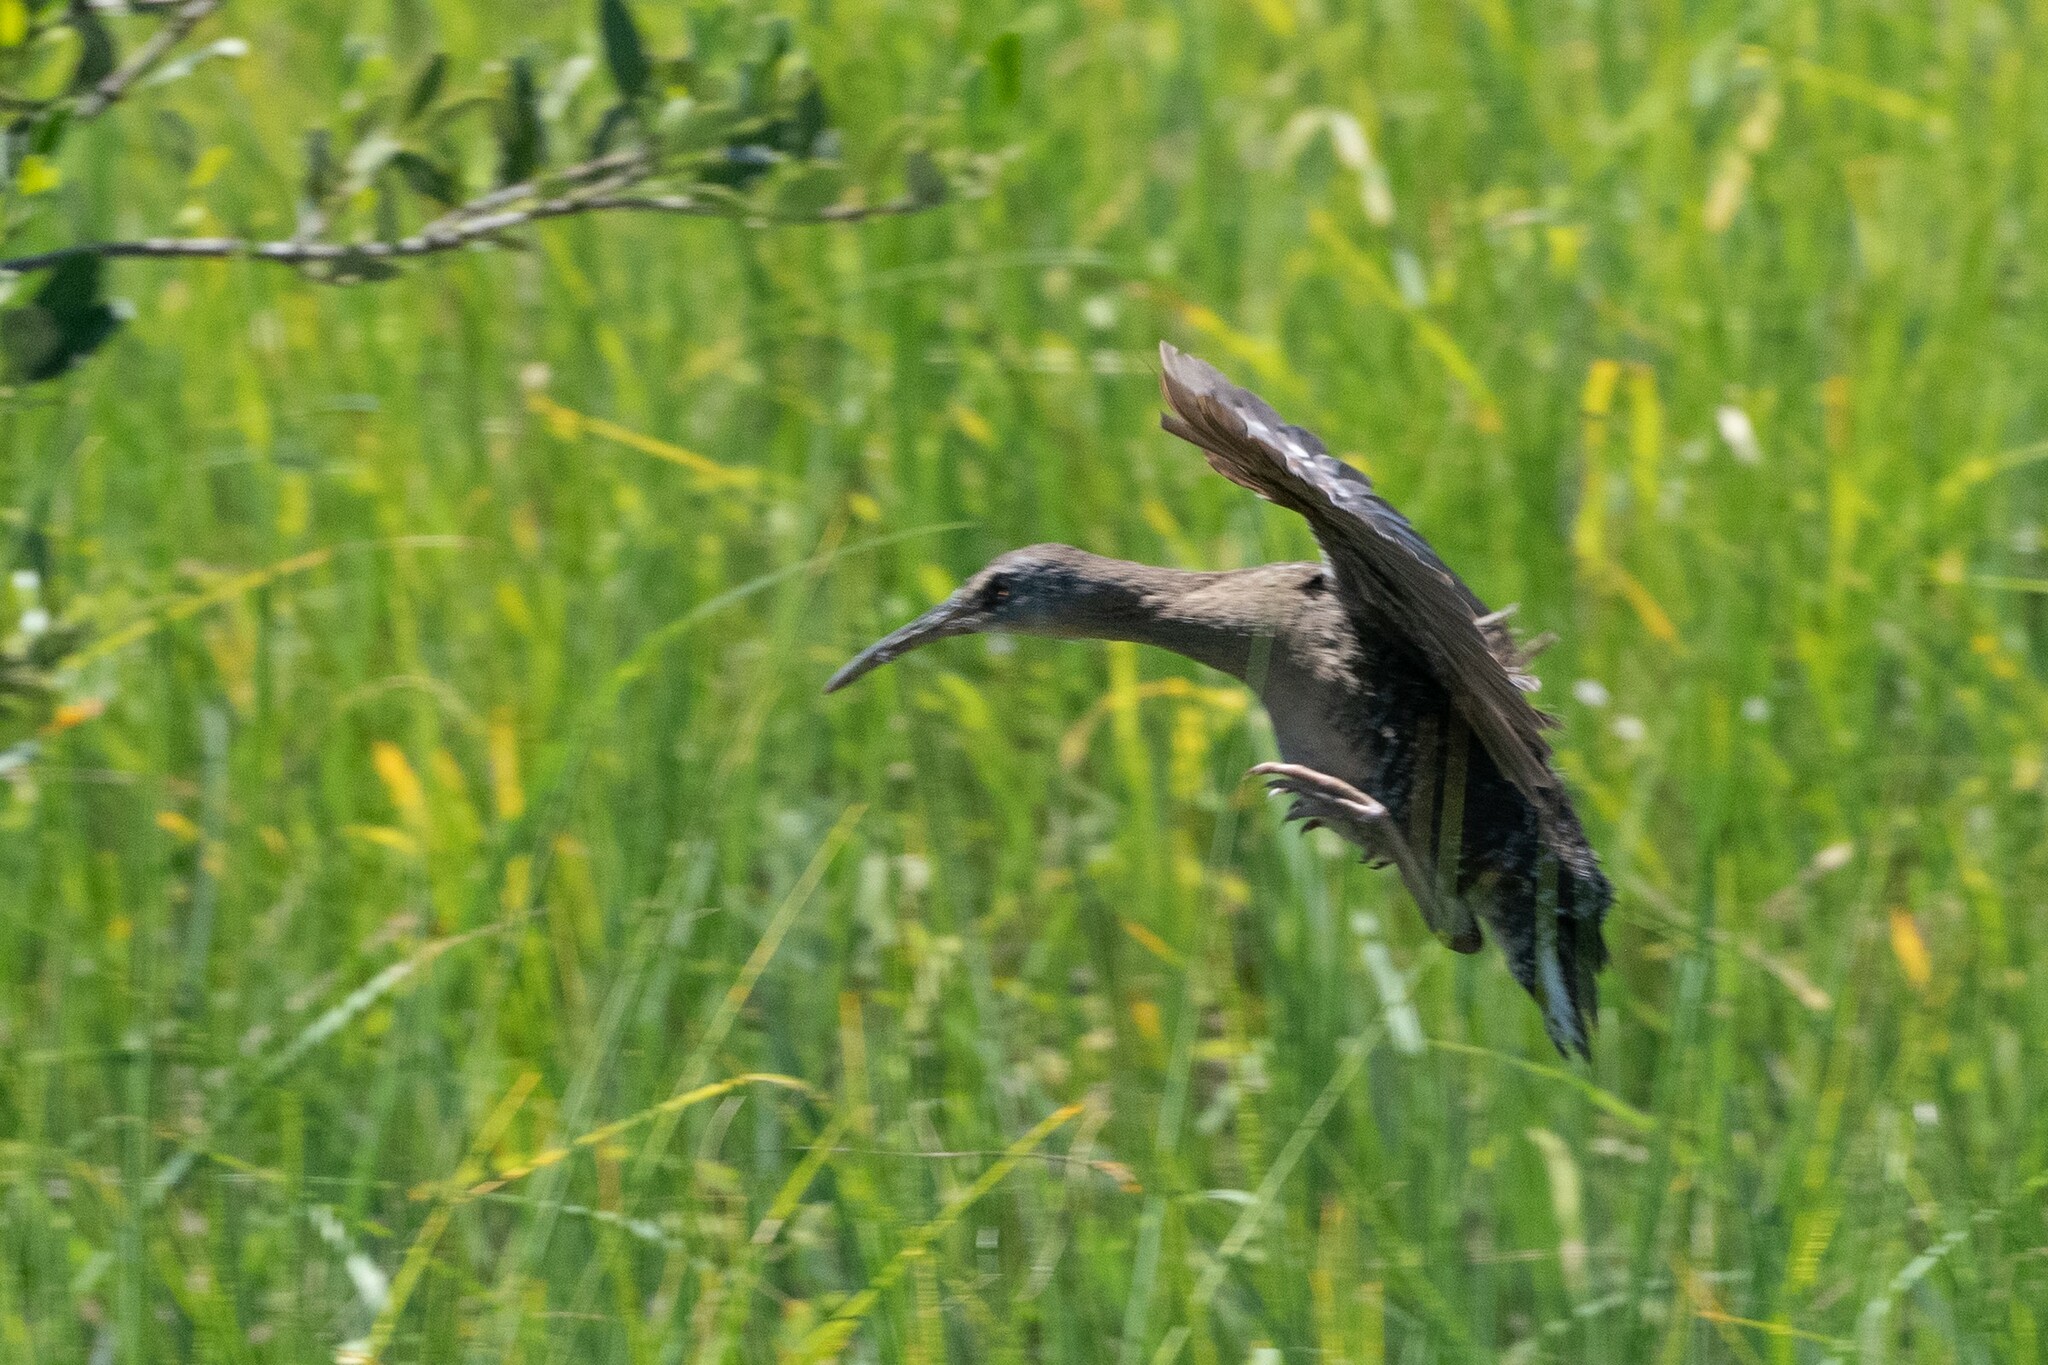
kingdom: Animalia
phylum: Chordata
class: Aves
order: Gruiformes
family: Rallidae
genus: Rallus
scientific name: Rallus crepitans
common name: Clapper rail
